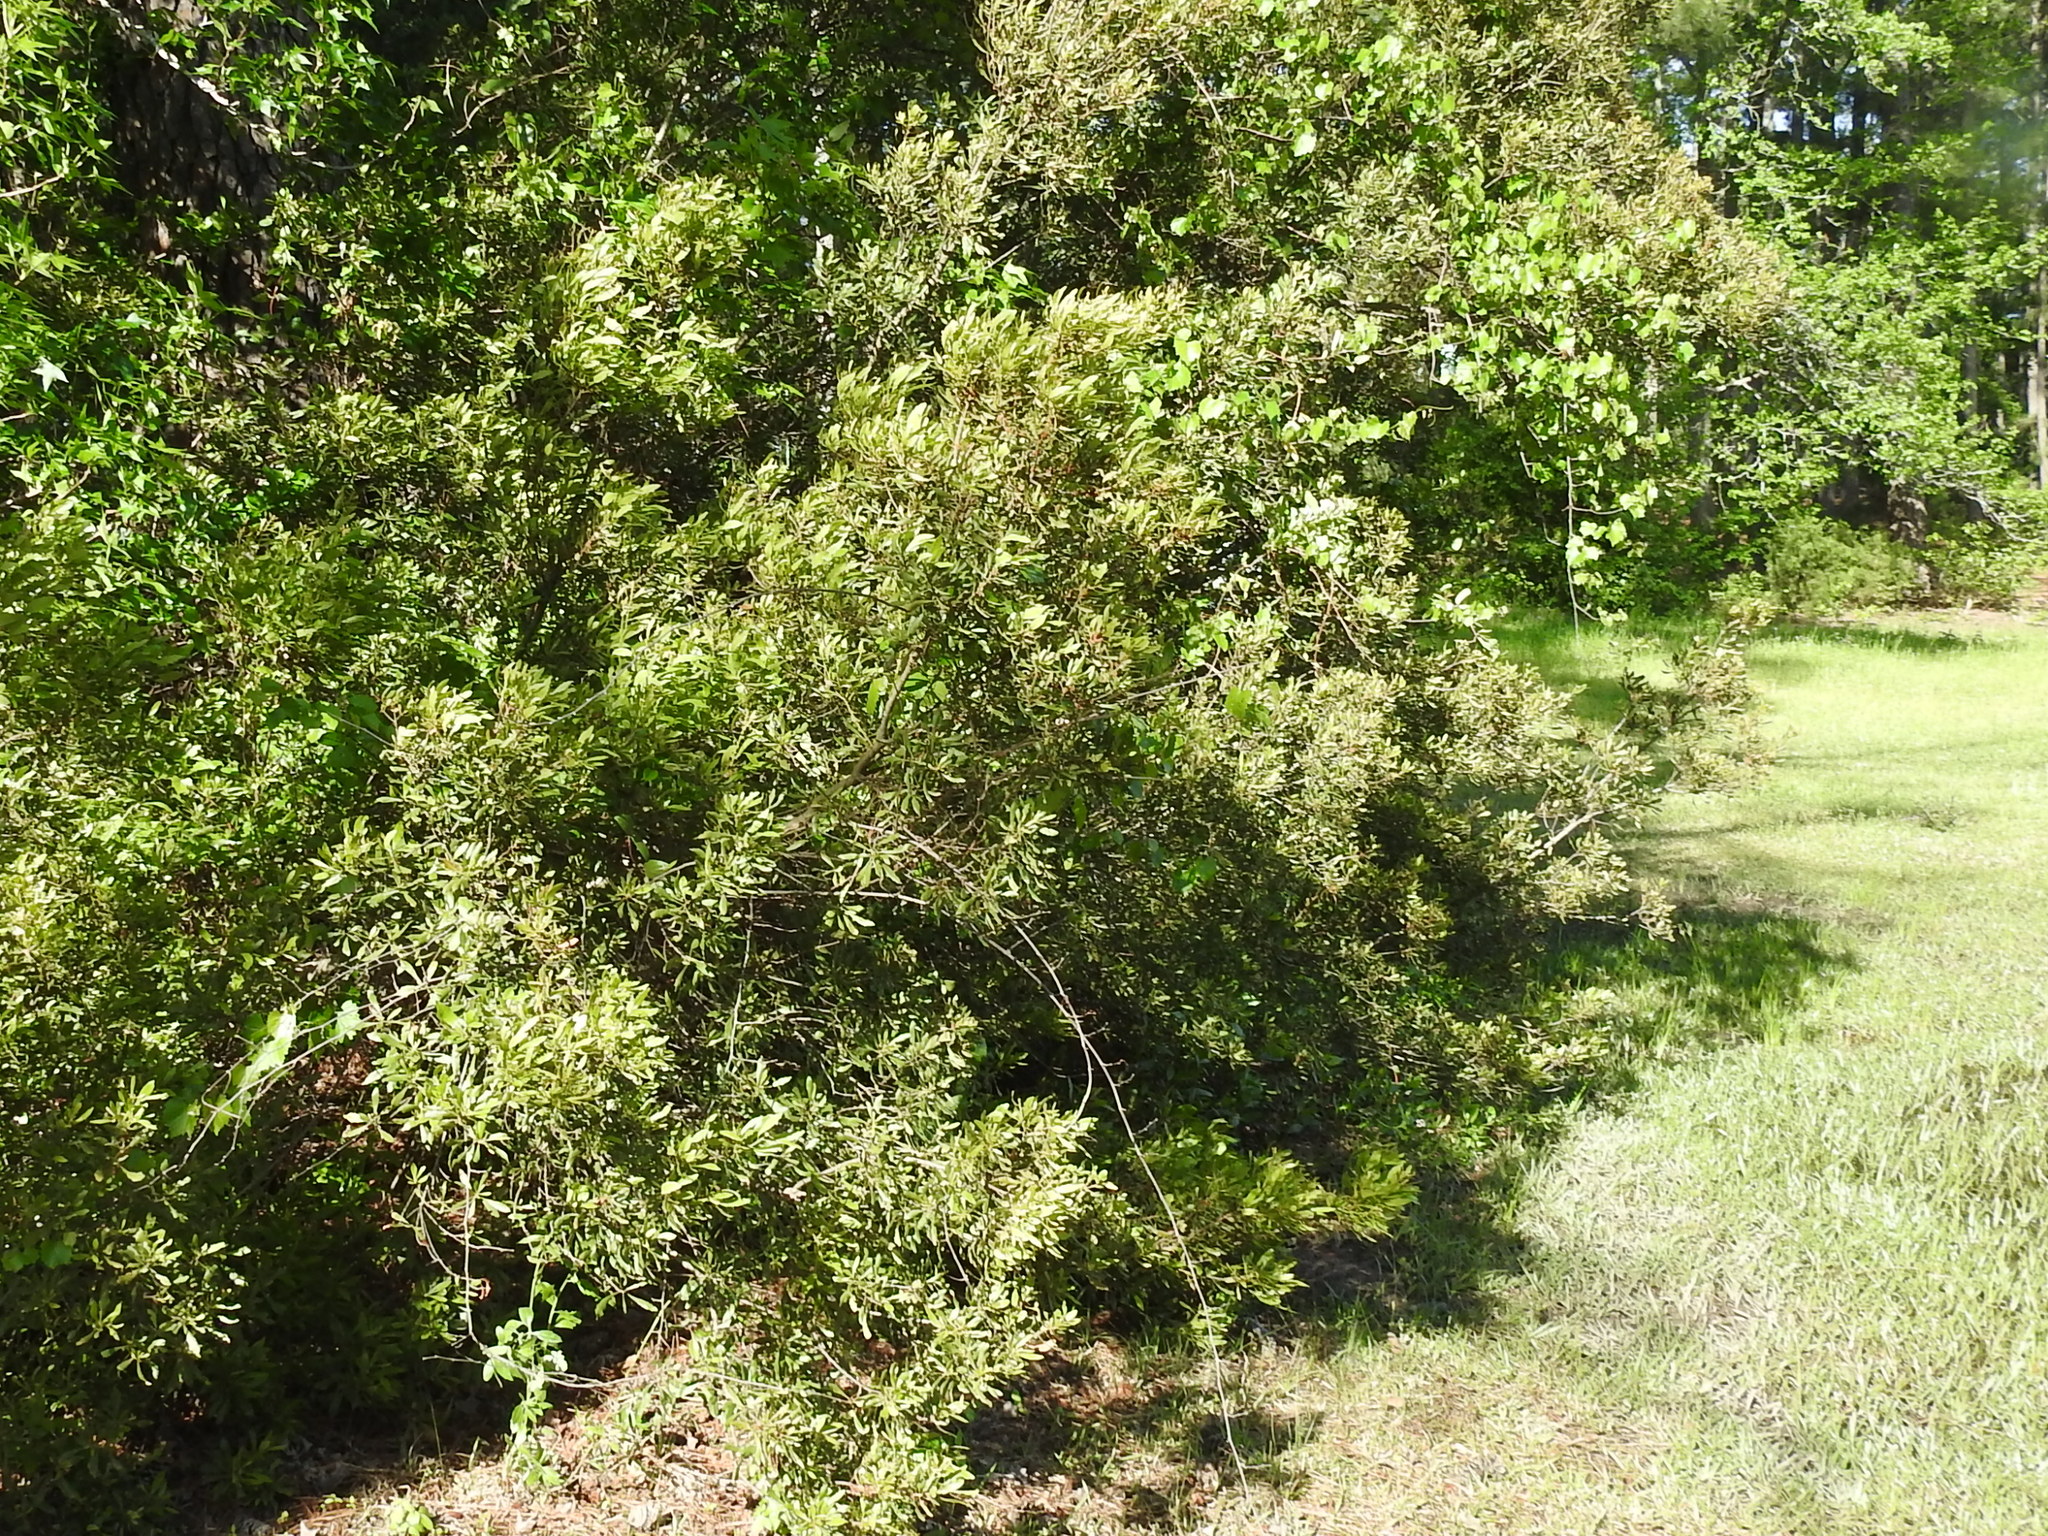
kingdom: Plantae
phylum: Tracheophyta
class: Magnoliopsida
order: Fagales
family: Myricaceae
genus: Morella
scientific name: Morella cerifera
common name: Wax myrtle
